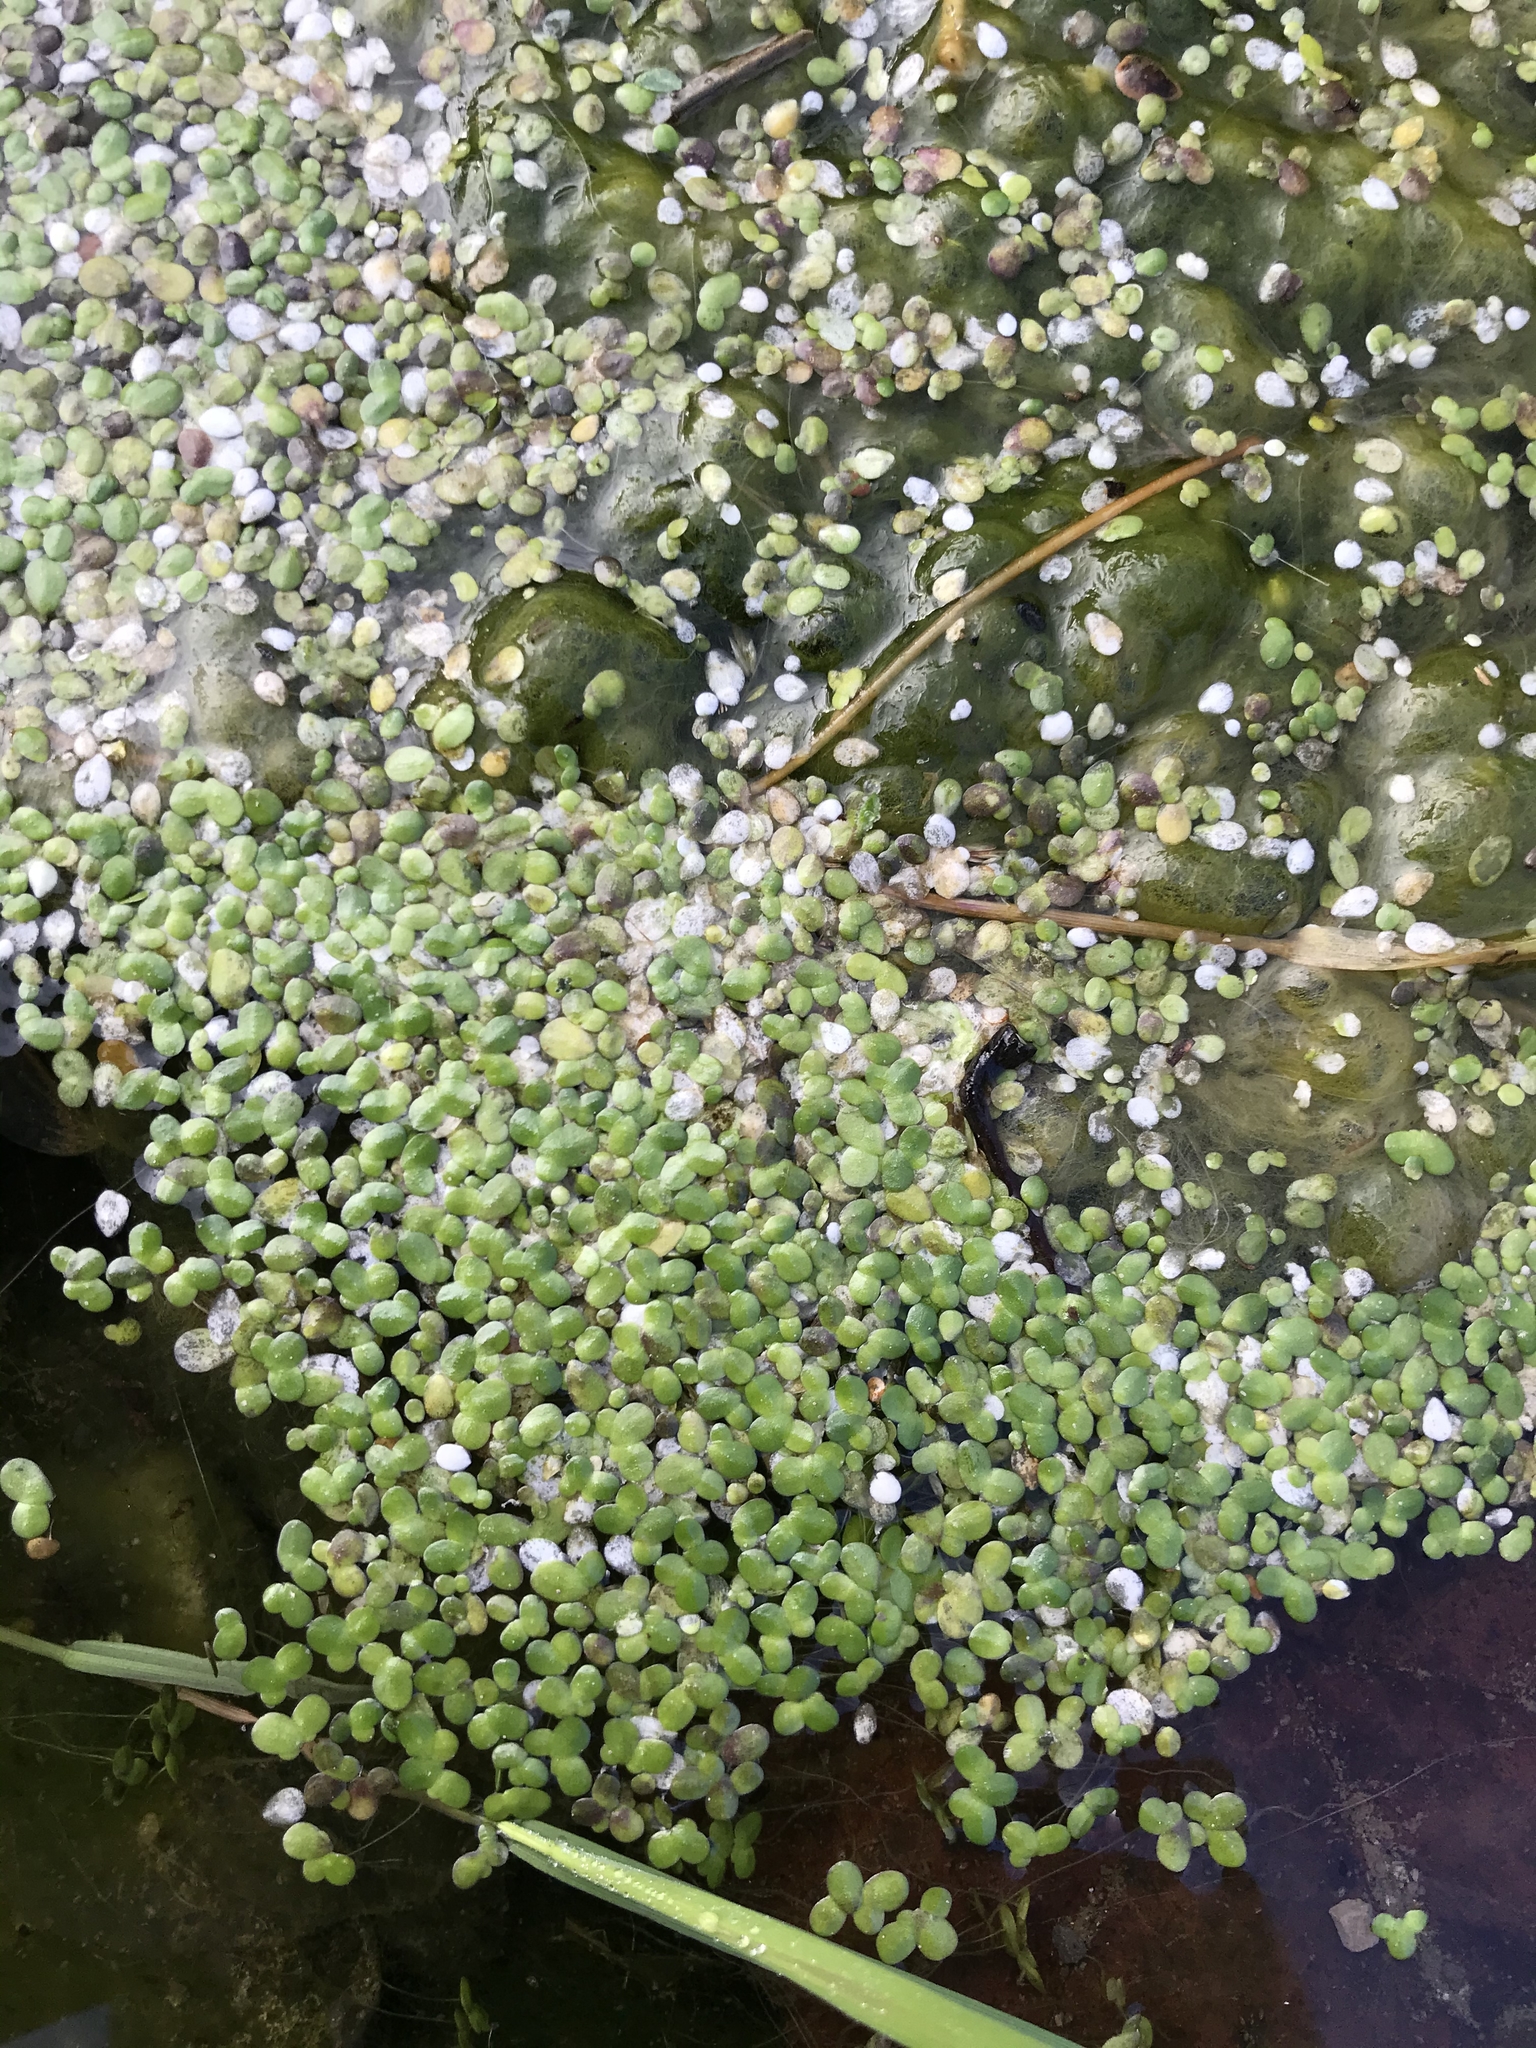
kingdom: Plantae
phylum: Tracheophyta
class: Liliopsida
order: Alismatales
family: Araceae
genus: Lemna
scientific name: Lemna minor
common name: Common duckweed
